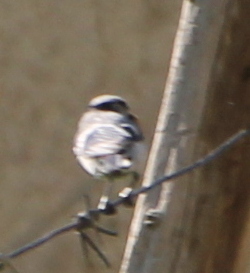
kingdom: Animalia
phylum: Chordata
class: Aves
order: Passeriformes
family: Paridae
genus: Cyanistes
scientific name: Cyanistes cyanus
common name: Azure tit
